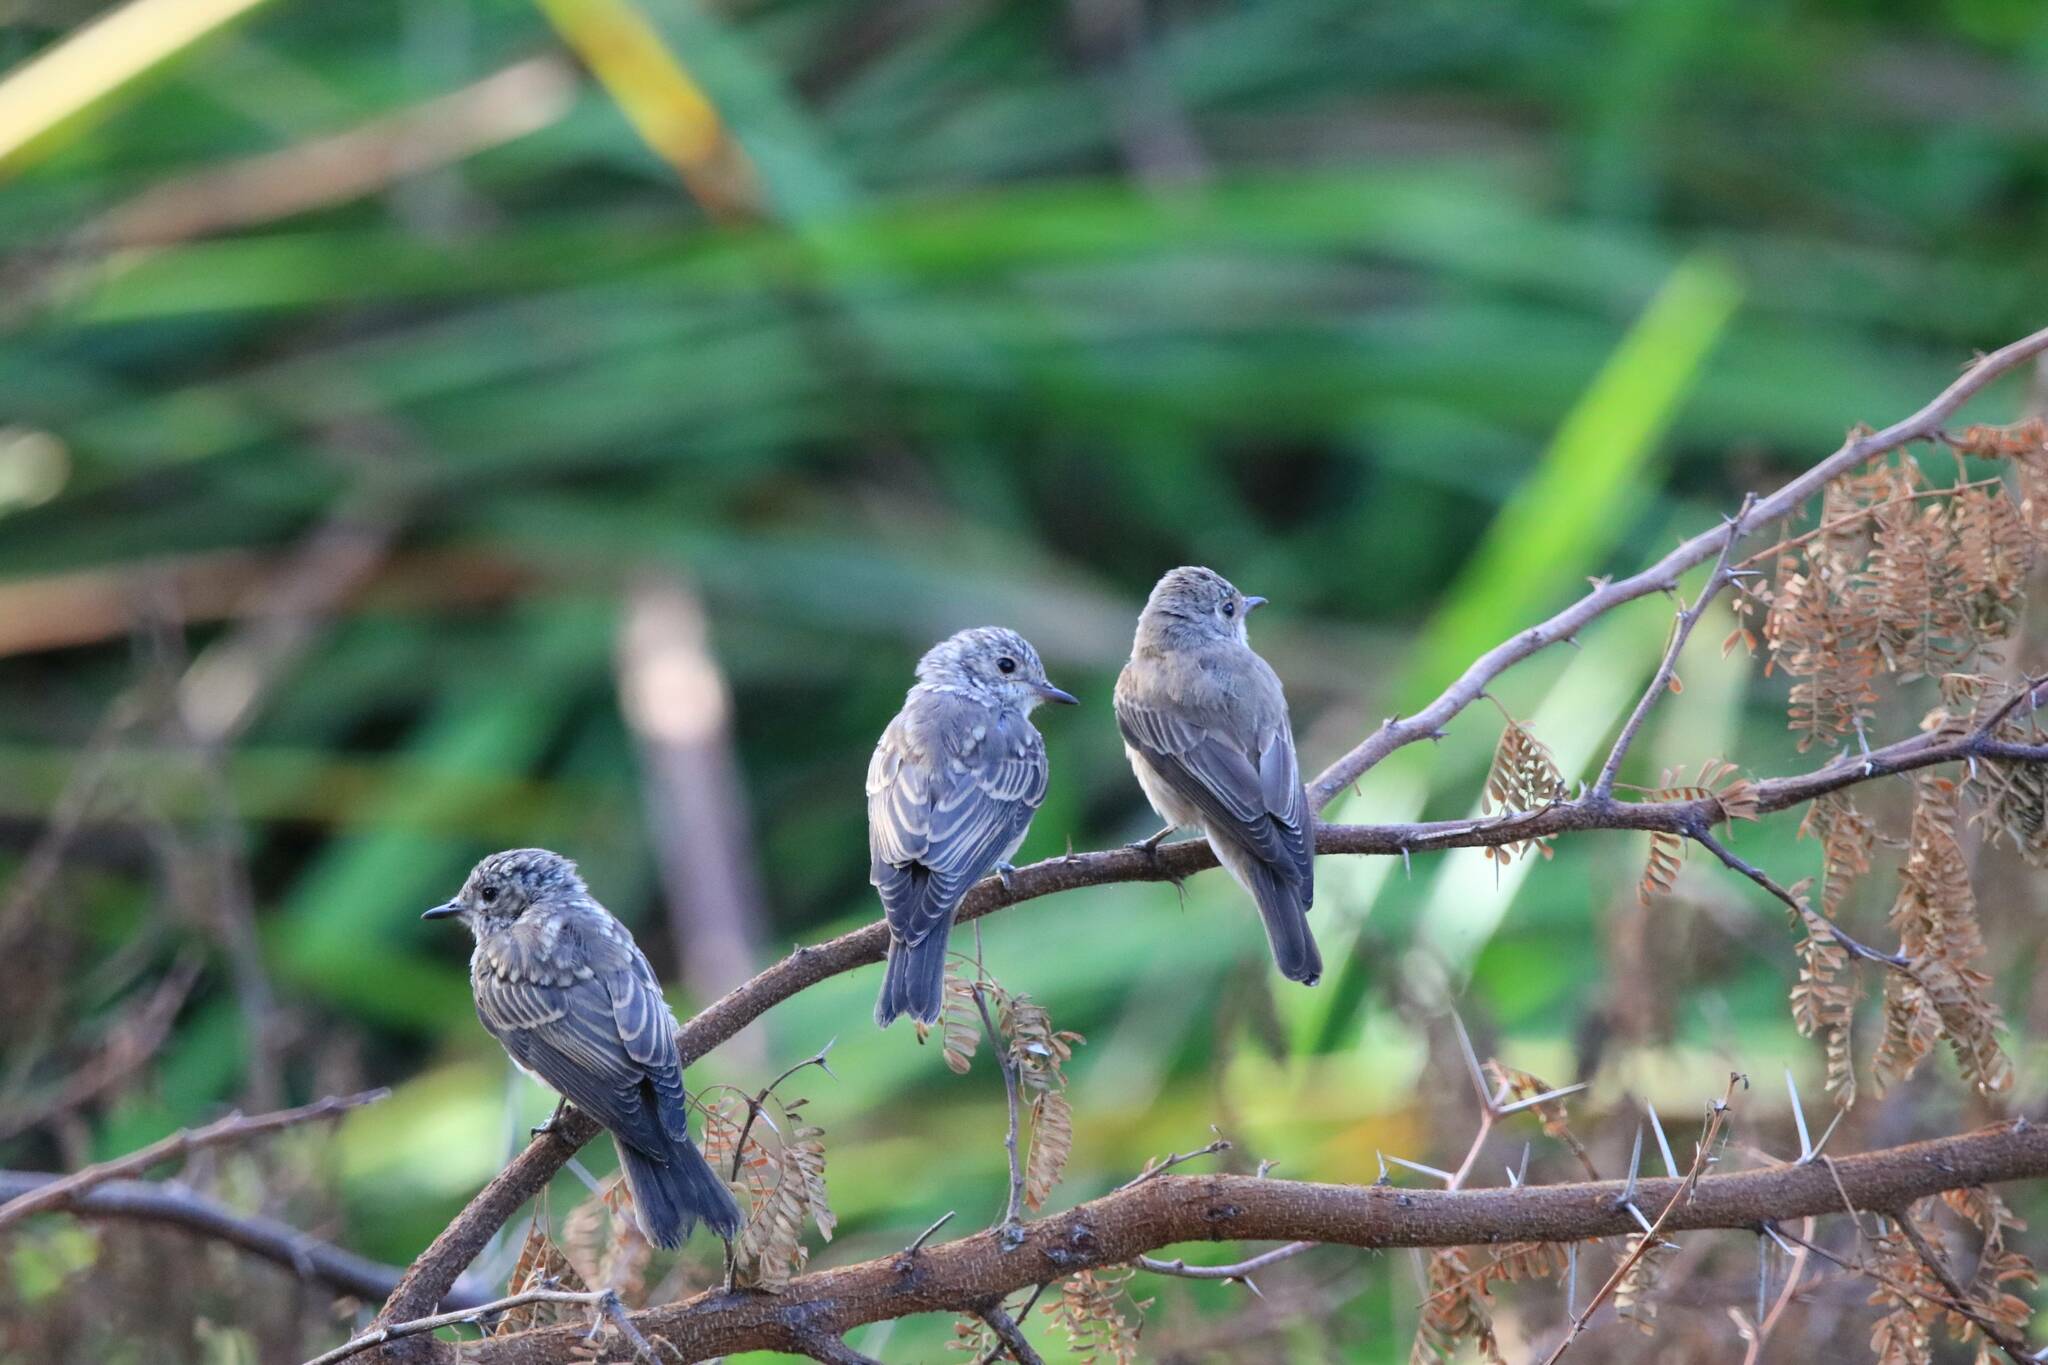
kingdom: Animalia
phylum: Chordata
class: Aves
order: Passeriformes
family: Muscicapidae
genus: Muscicapa
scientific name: Muscicapa striata
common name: Spotted flycatcher
